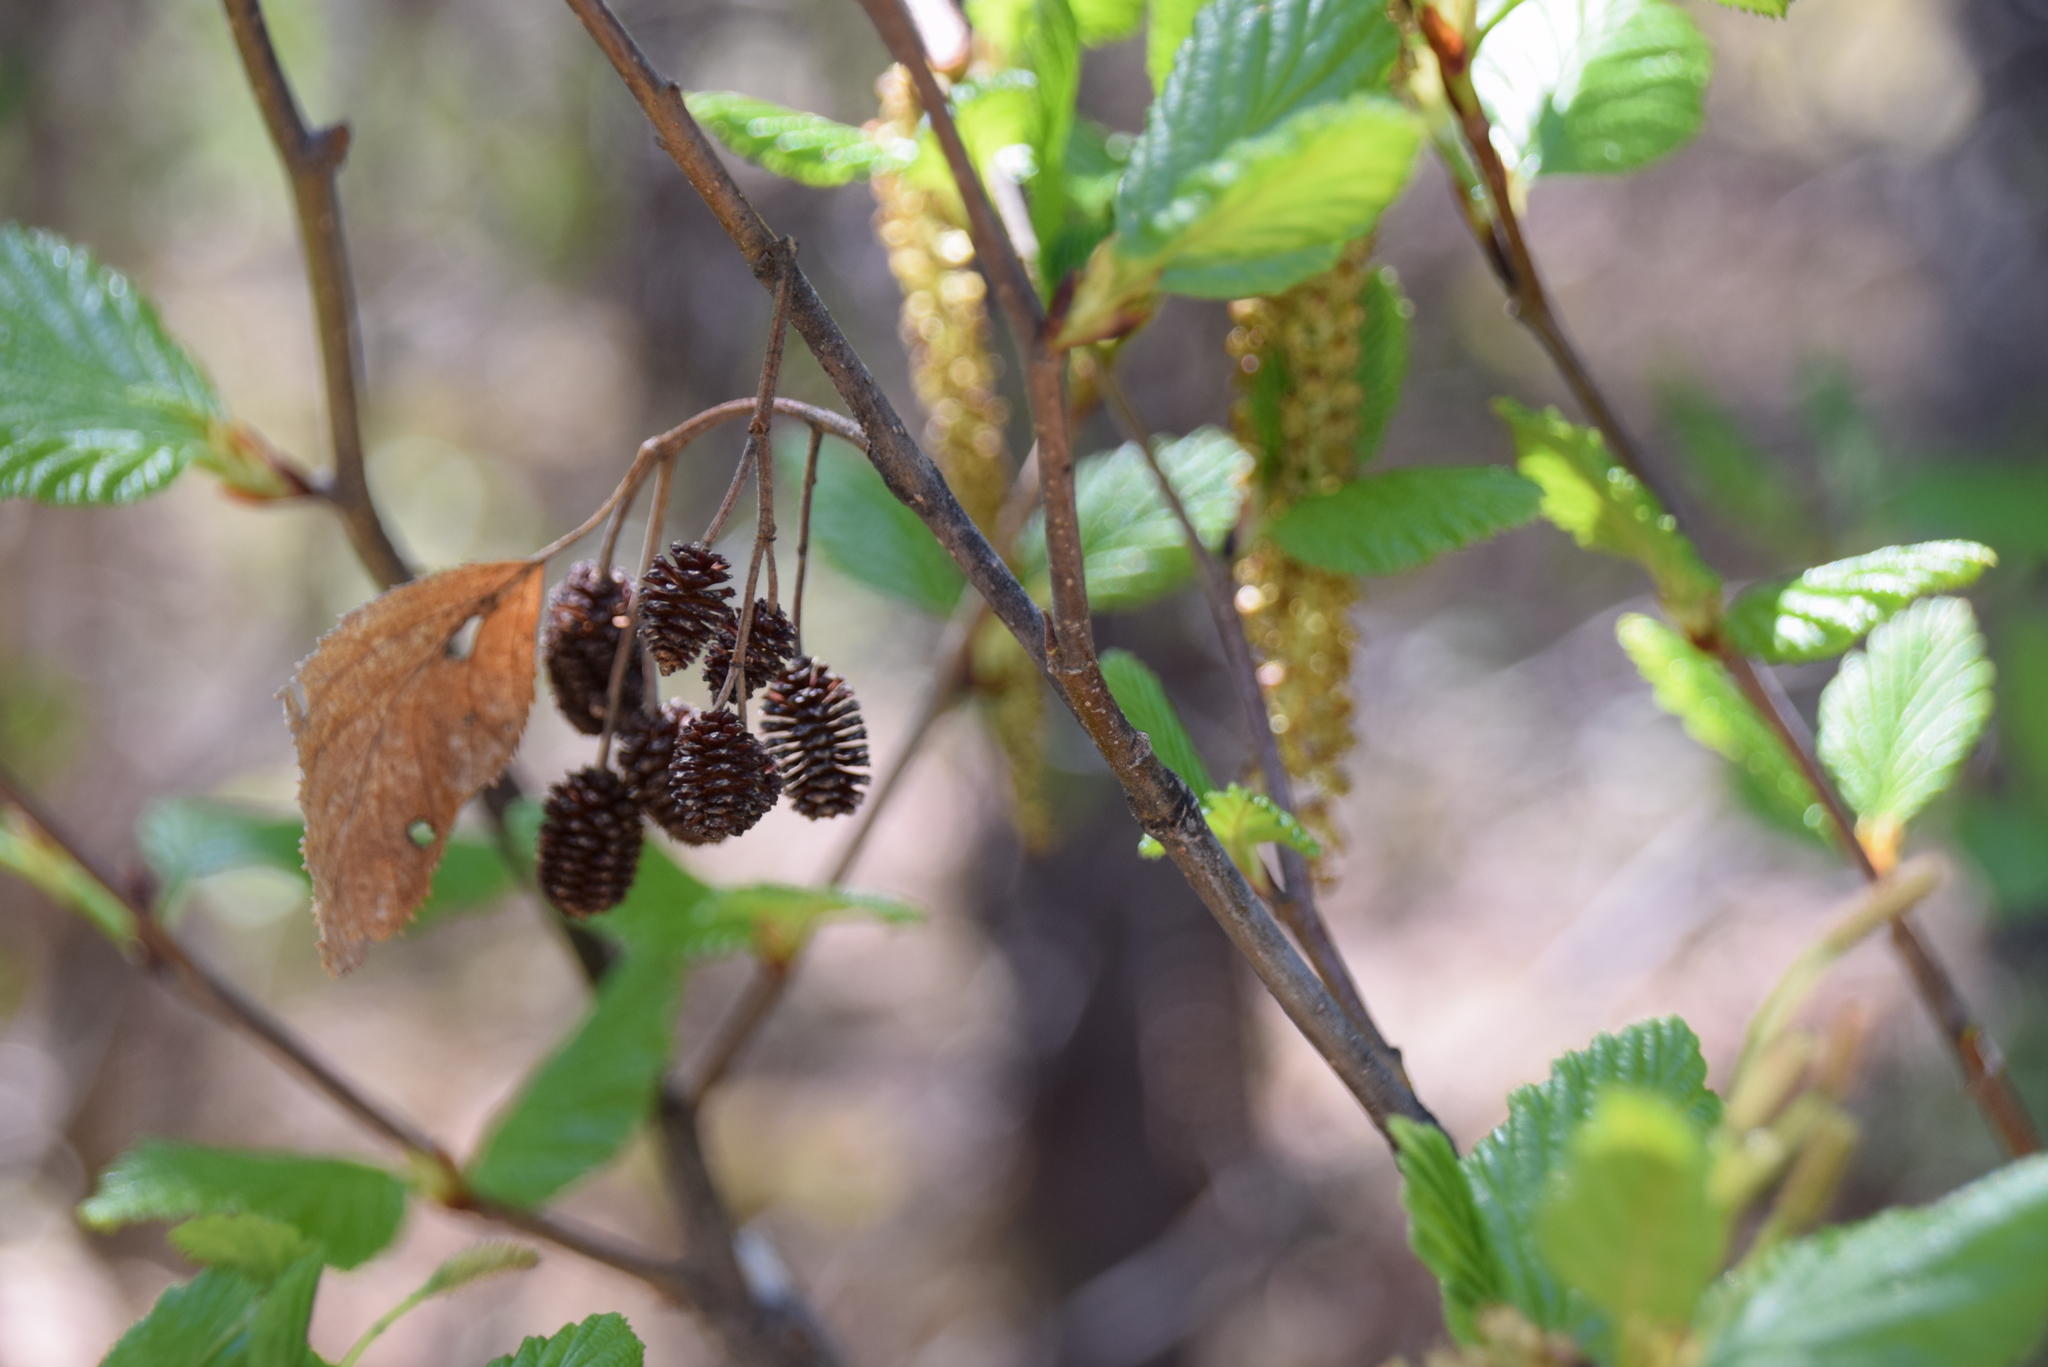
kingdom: Plantae
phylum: Tracheophyta
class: Magnoliopsida
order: Fagales
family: Betulaceae
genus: Alnus
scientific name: Alnus alnobetula
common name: Green alder
